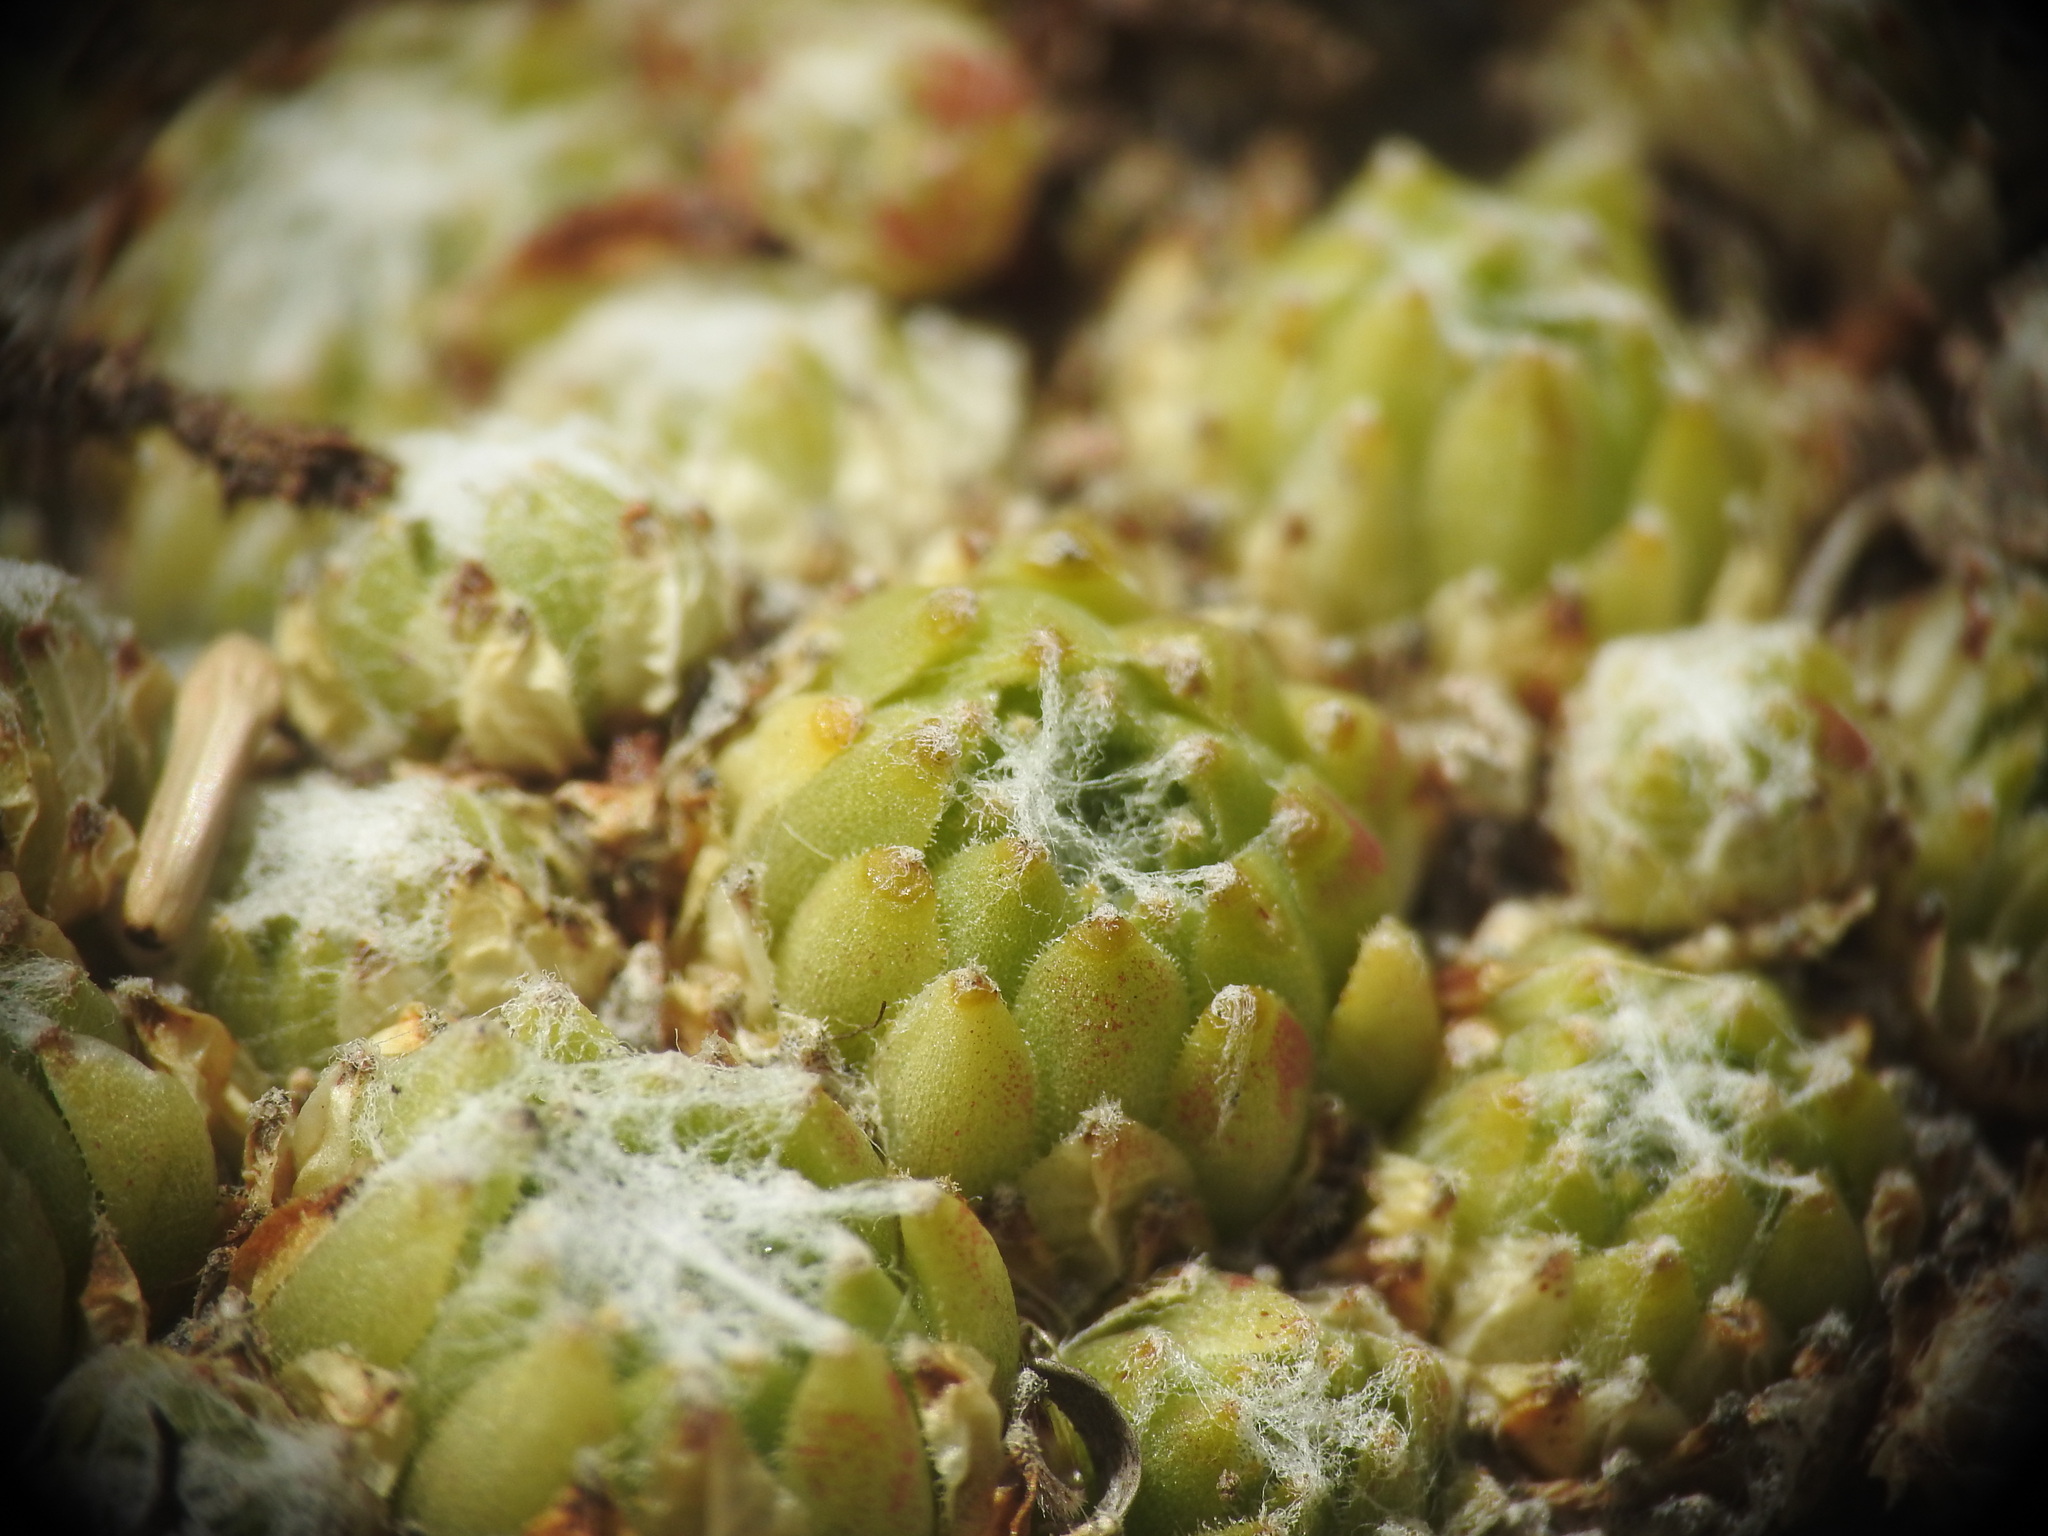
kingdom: Plantae
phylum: Tracheophyta
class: Magnoliopsida
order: Saxifragales
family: Crassulaceae
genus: Sempervivum
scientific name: Sempervivum arachnoideum
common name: Cobweb house-leek
